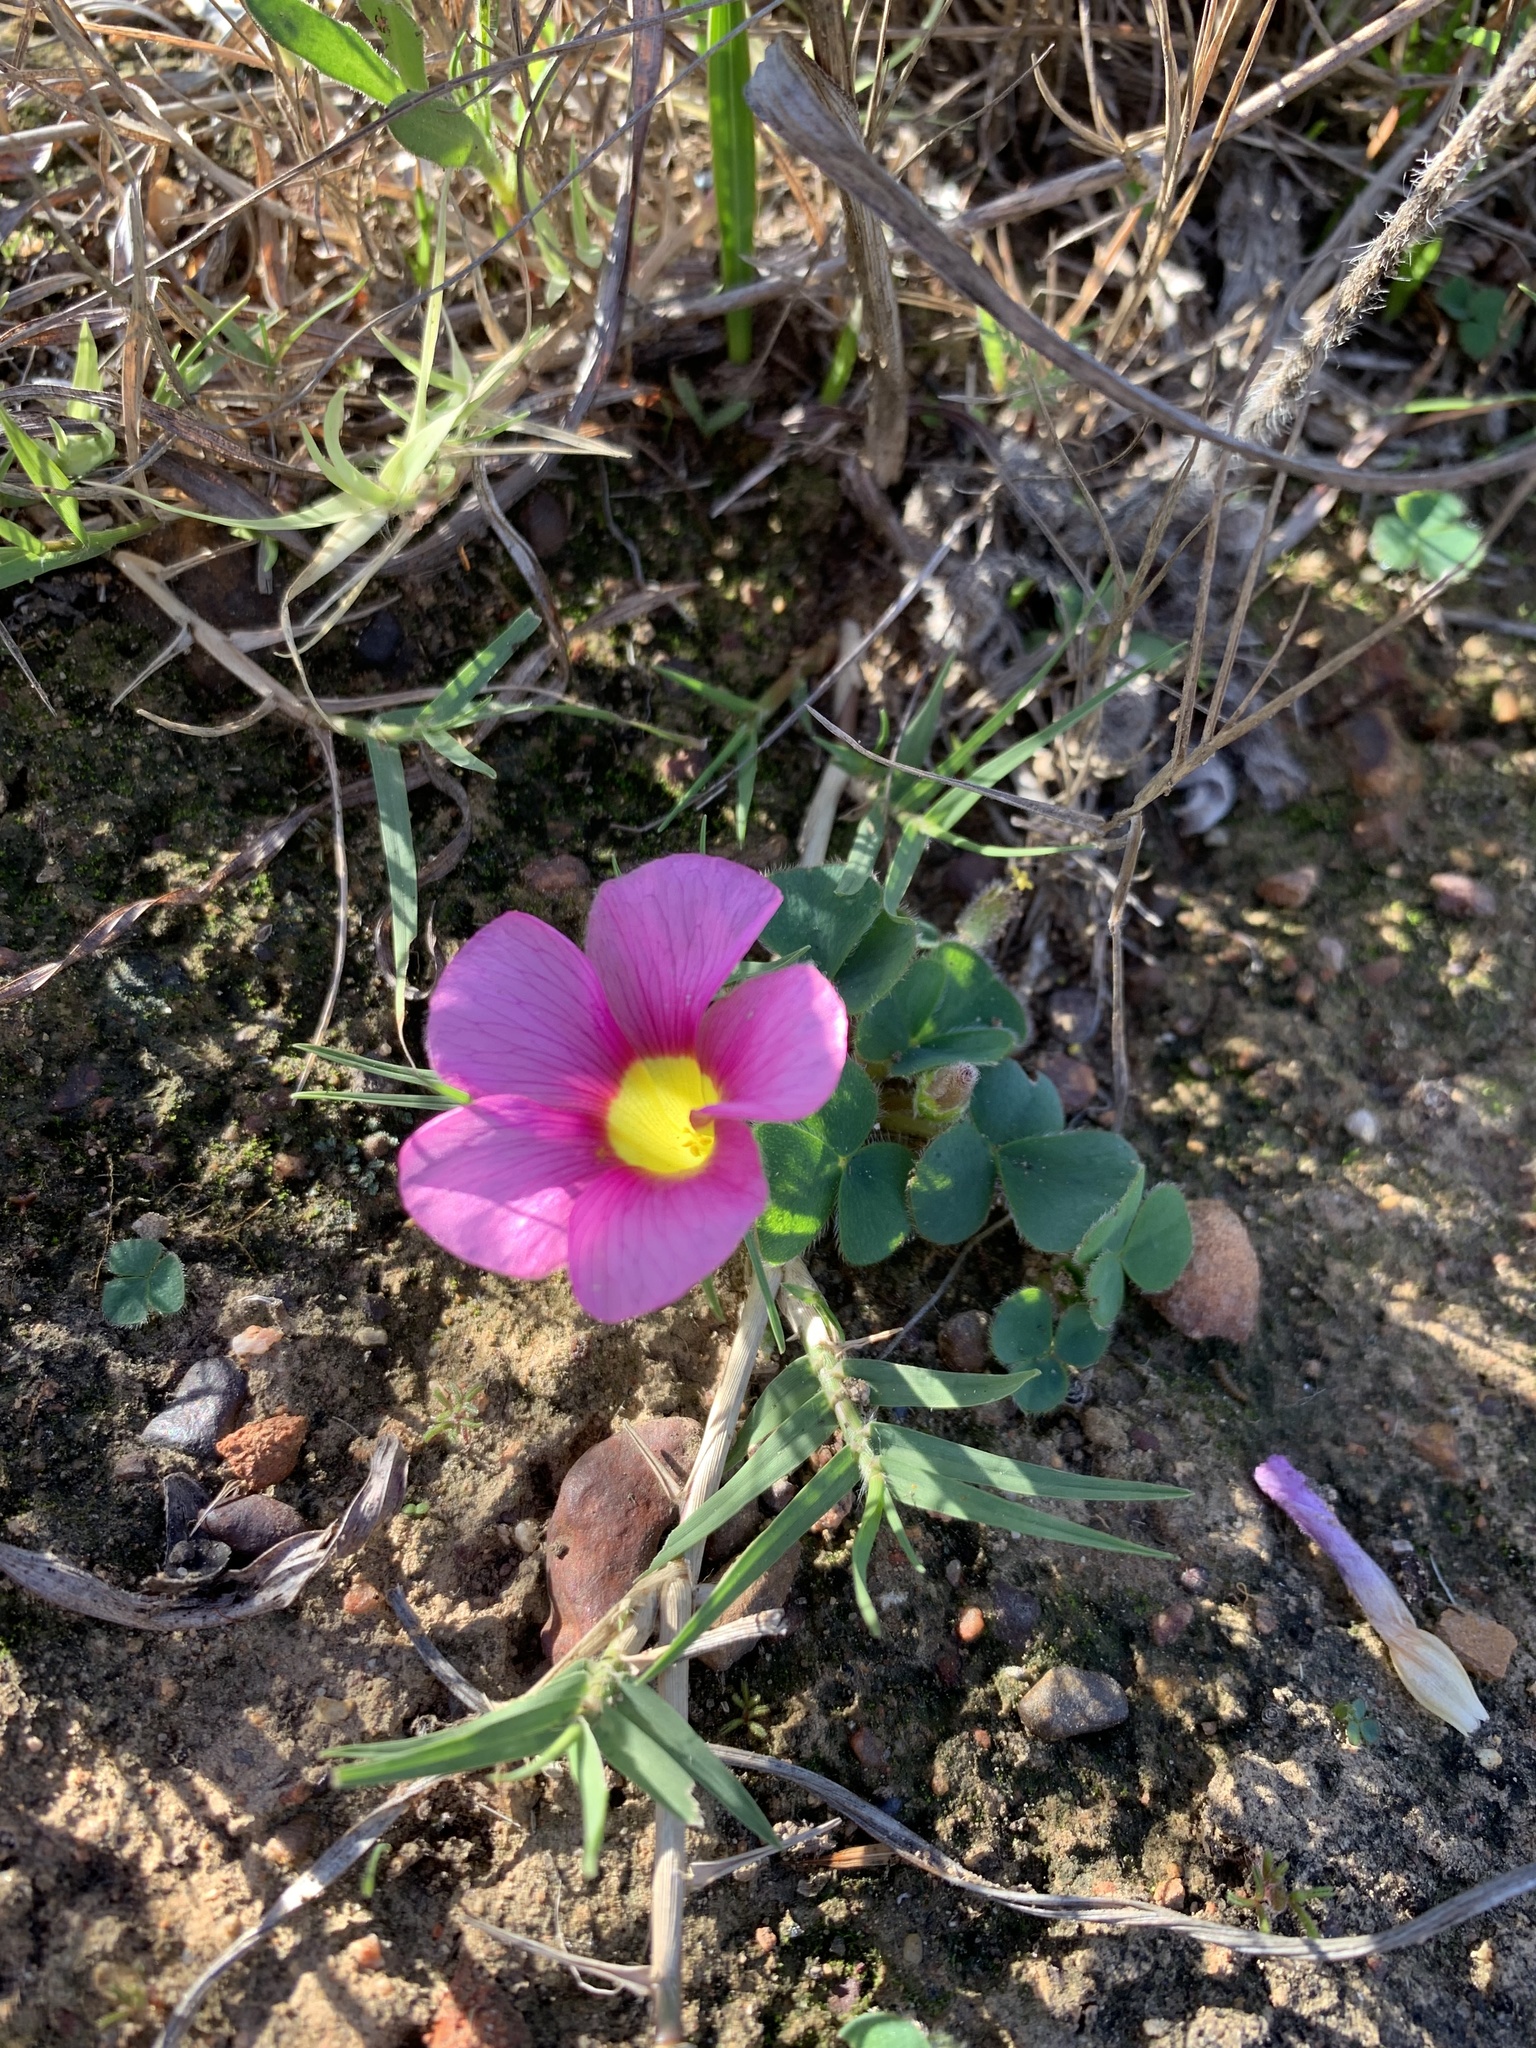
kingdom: Plantae
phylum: Tracheophyta
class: Magnoliopsida
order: Oxalidales
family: Oxalidaceae
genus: Oxalis
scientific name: Oxalis purpurea
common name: Purple woodsorrel
